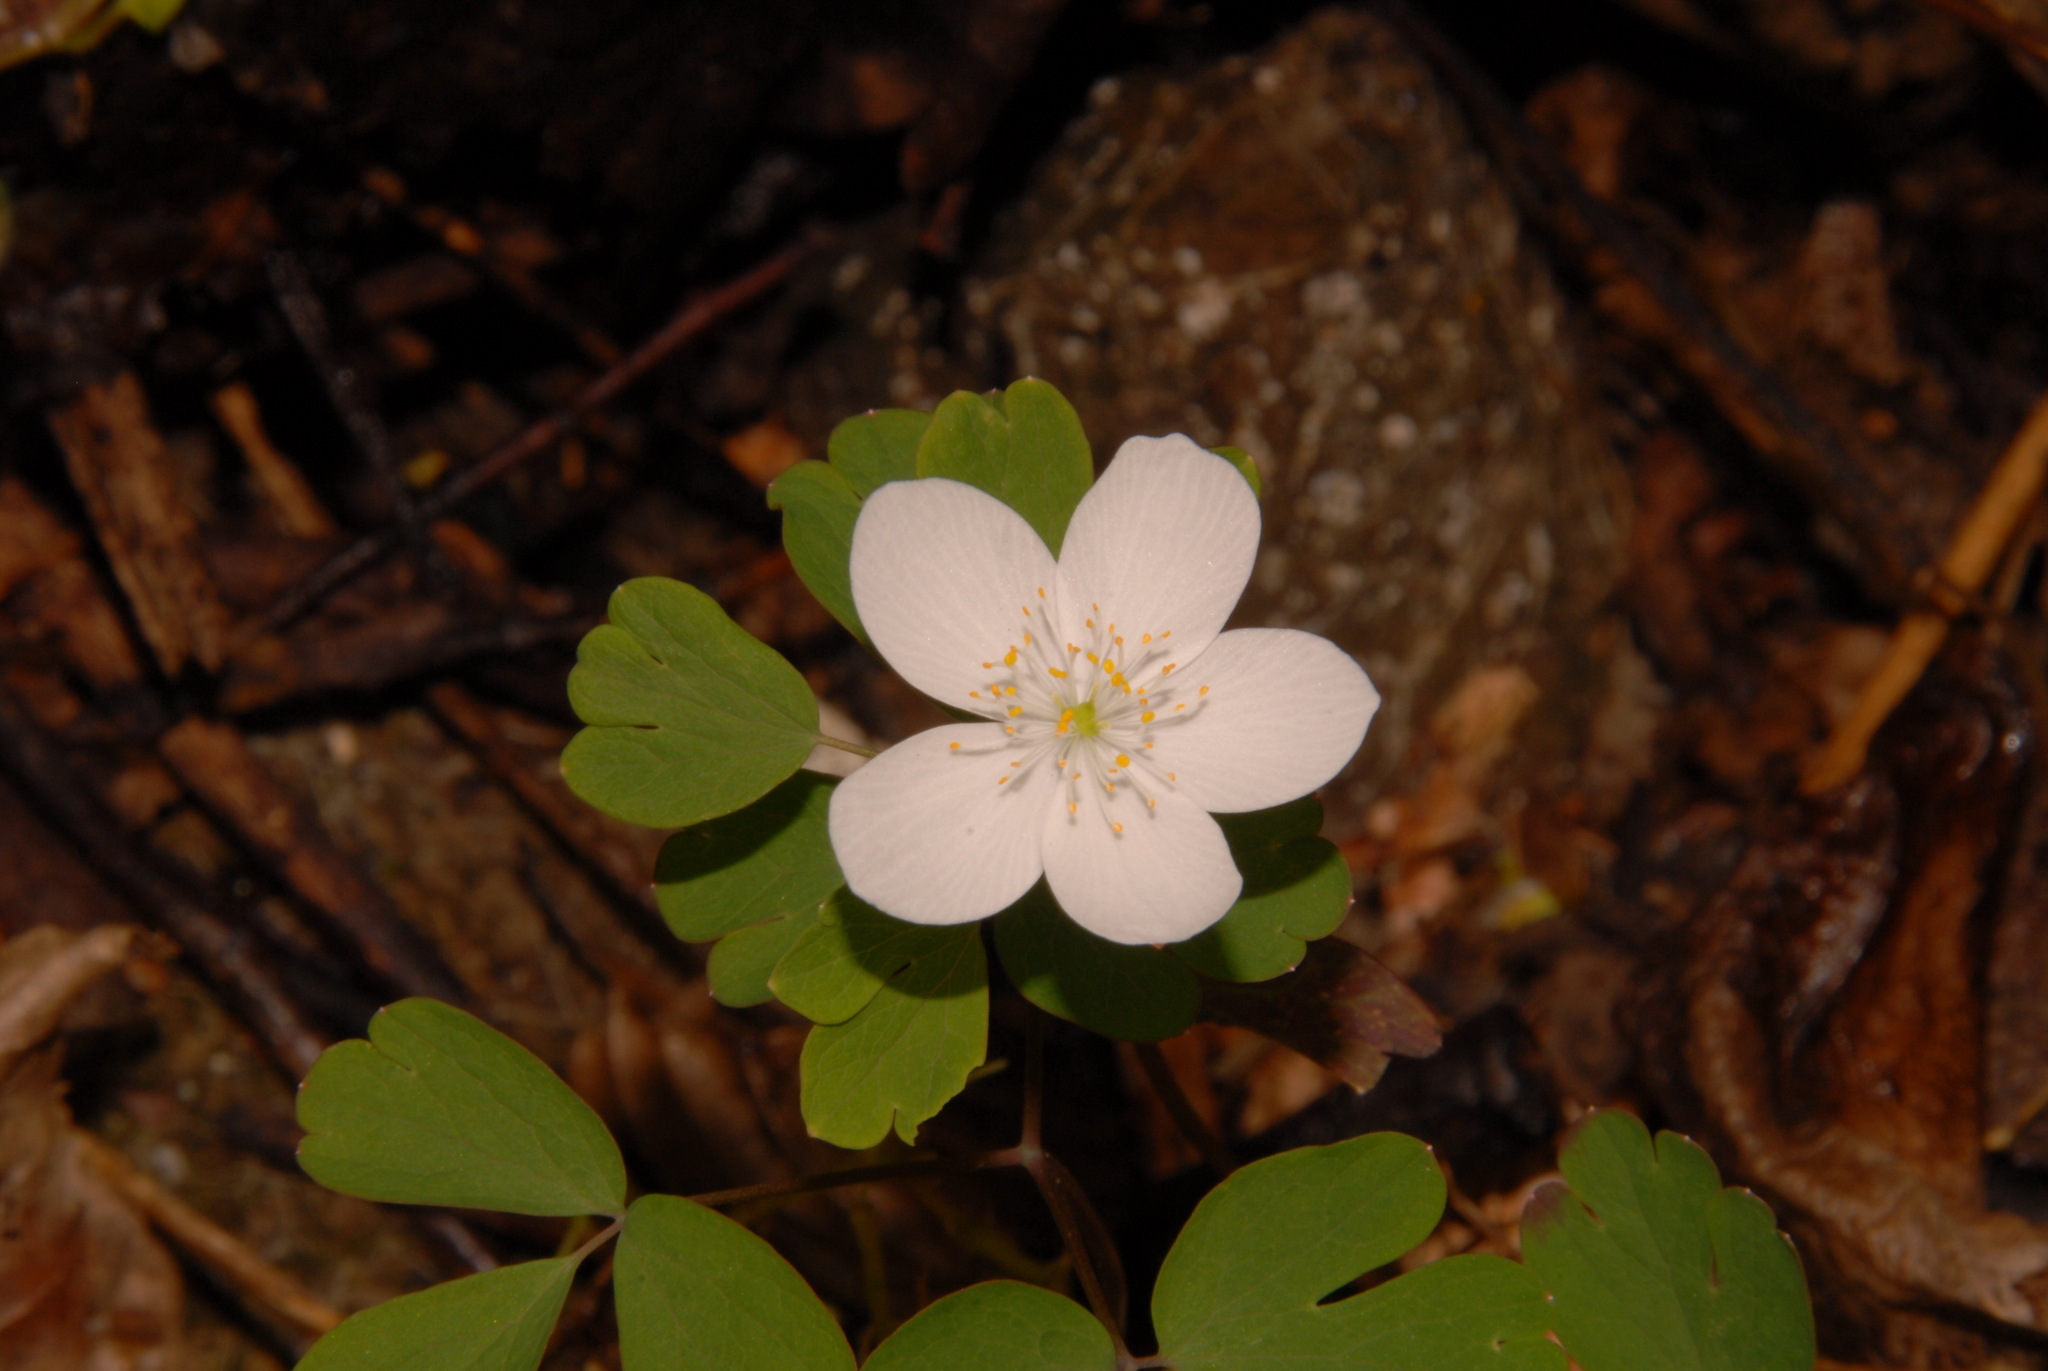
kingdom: Plantae
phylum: Tracheophyta
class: Magnoliopsida
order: Ranunculales
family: Ranunculaceae
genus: Enemion
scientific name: Enemion biternatum
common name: Eastern false rue-anemone
